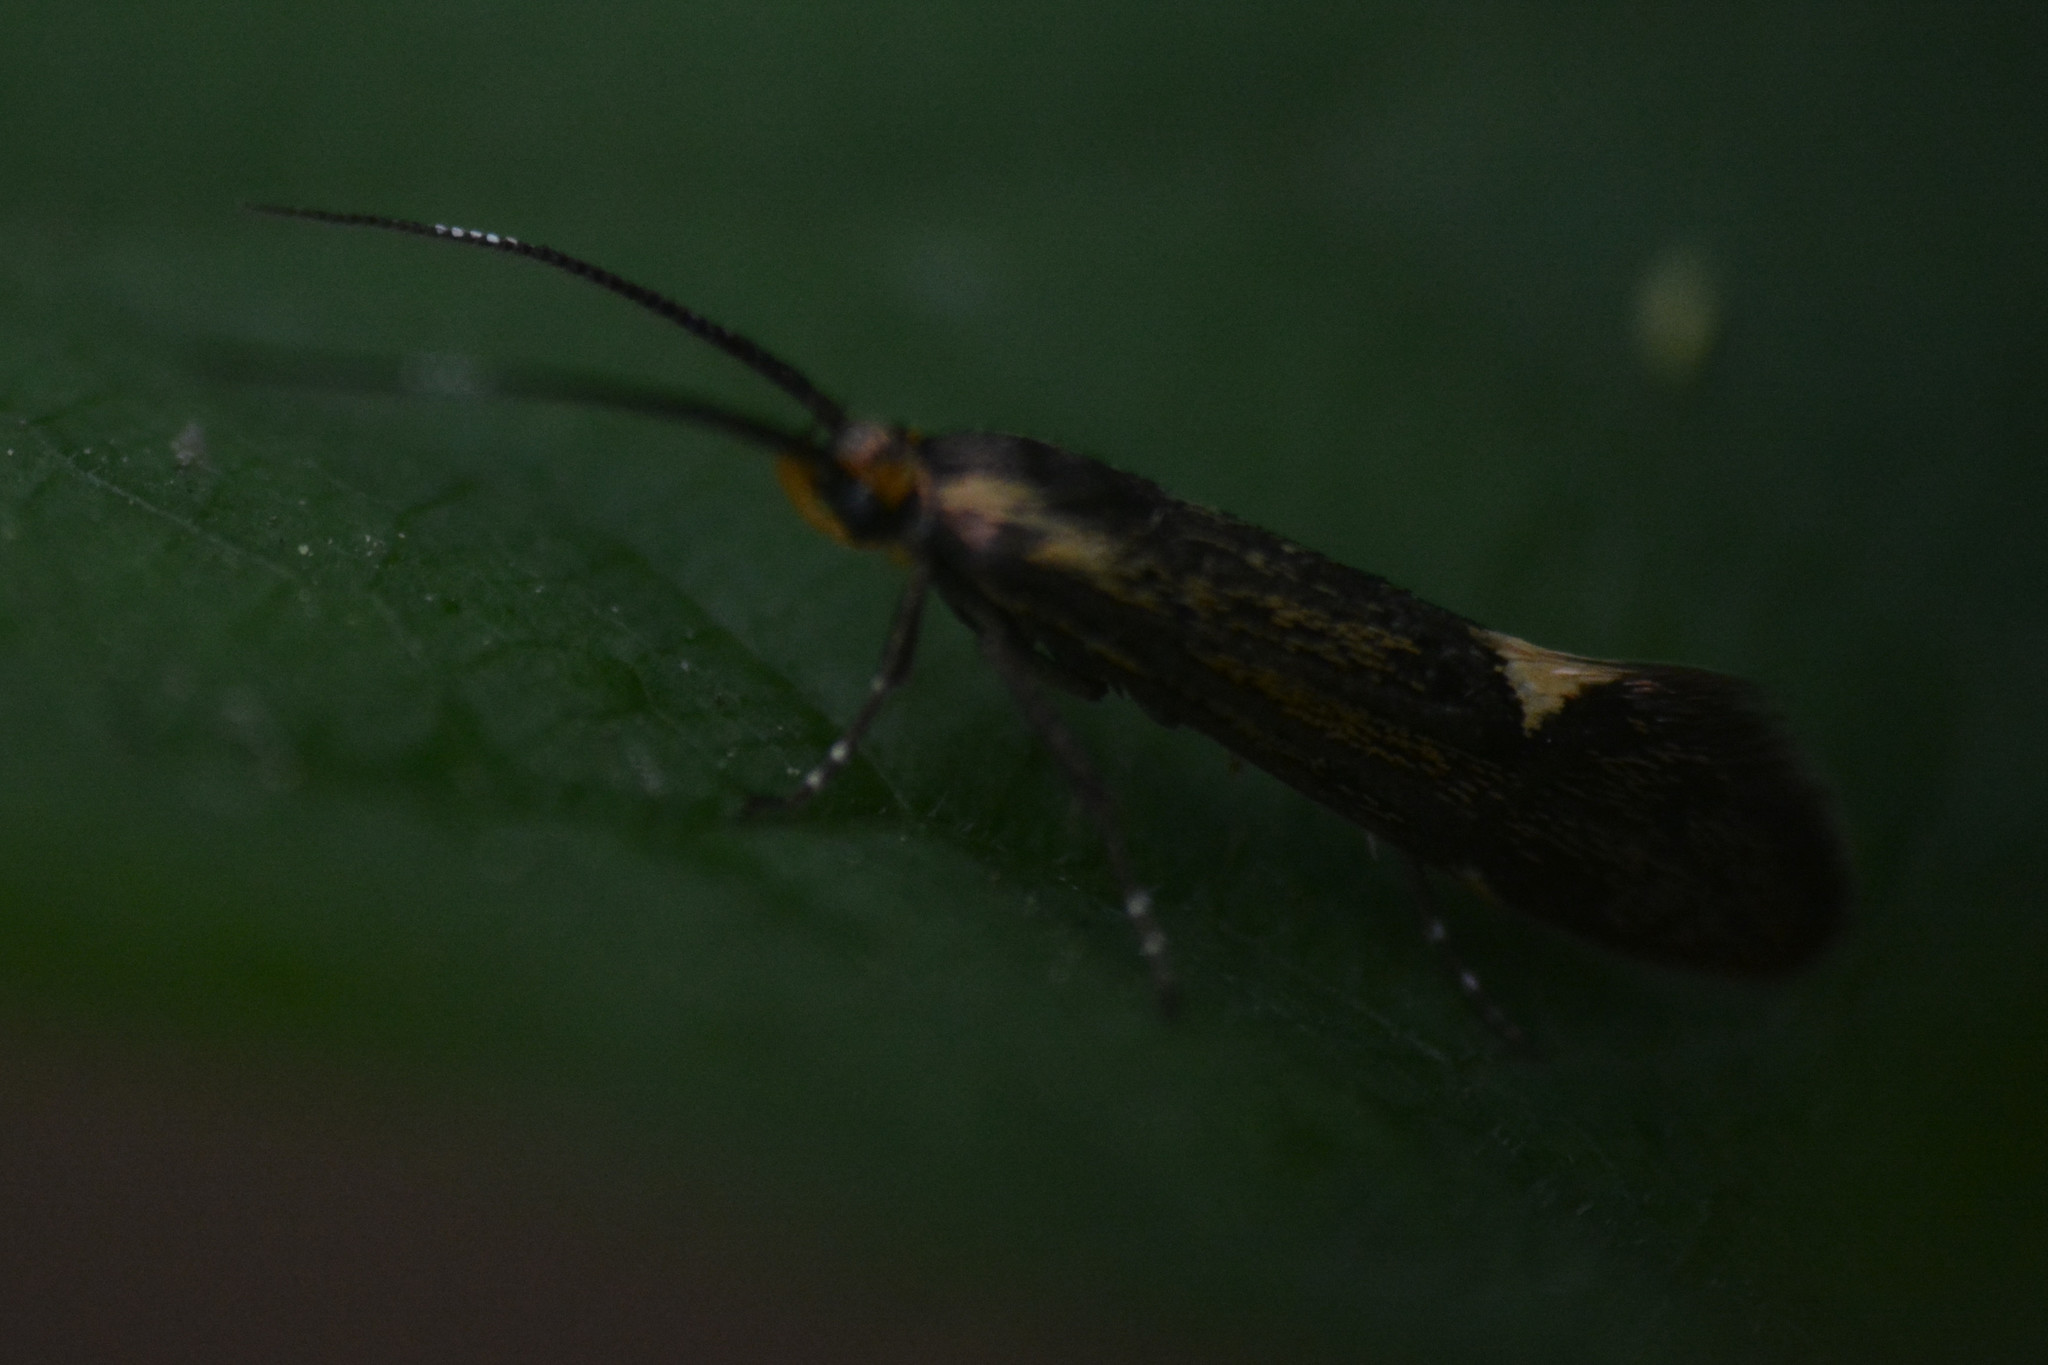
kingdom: Animalia
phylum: Arthropoda
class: Insecta
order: Lepidoptera
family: Oecophoridae
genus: Dafa
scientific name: Dafa Esperia sulphurella
